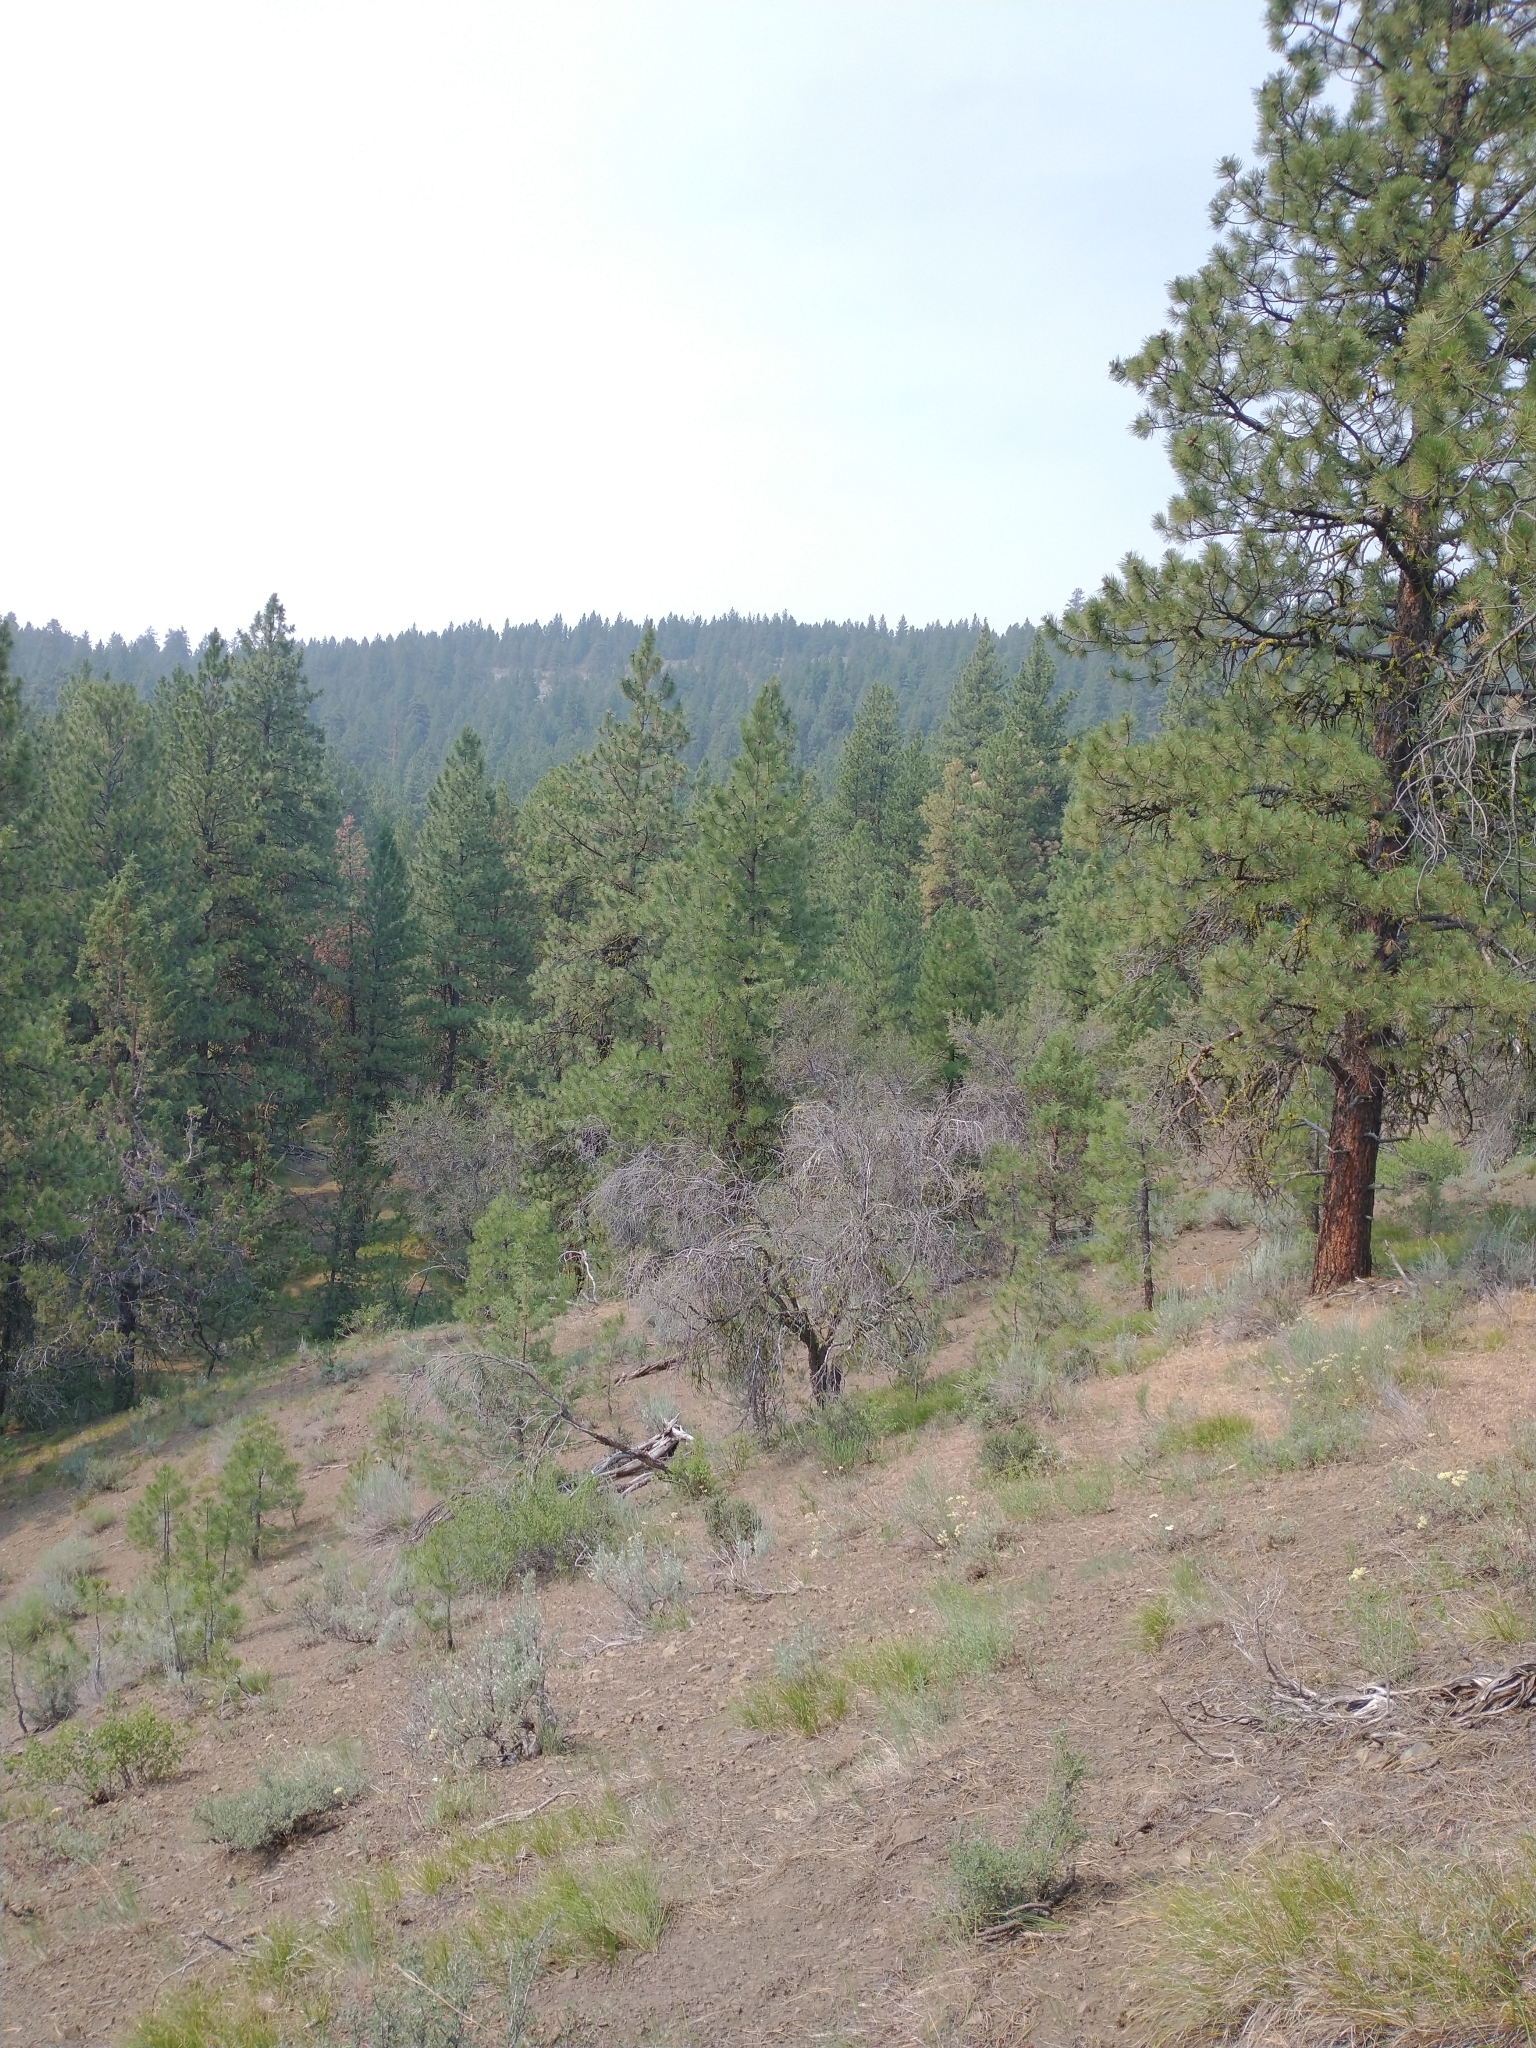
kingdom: Plantae
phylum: Tracheophyta
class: Magnoliopsida
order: Rosales
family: Rosaceae
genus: Cercocarpus
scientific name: Cercocarpus ledifolius
